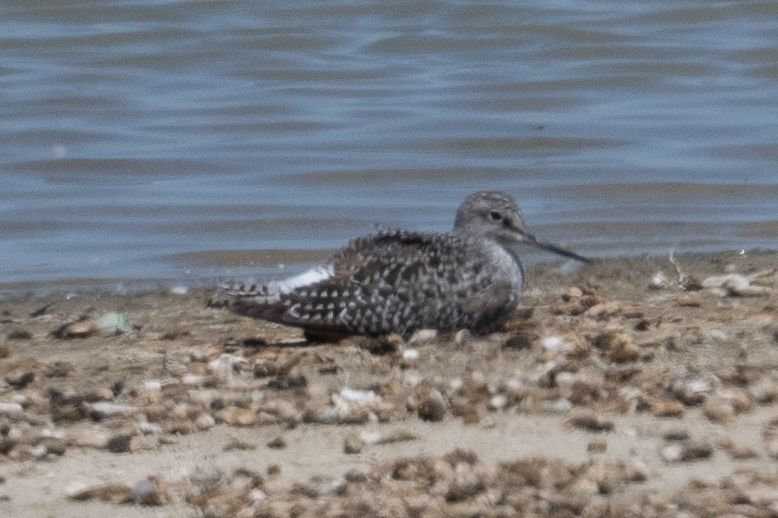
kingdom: Animalia
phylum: Chordata
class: Aves
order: Charadriiformes
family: Scolopacidae
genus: Tringa
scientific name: Tringa melanoleuca
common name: Greater yellowlegs
